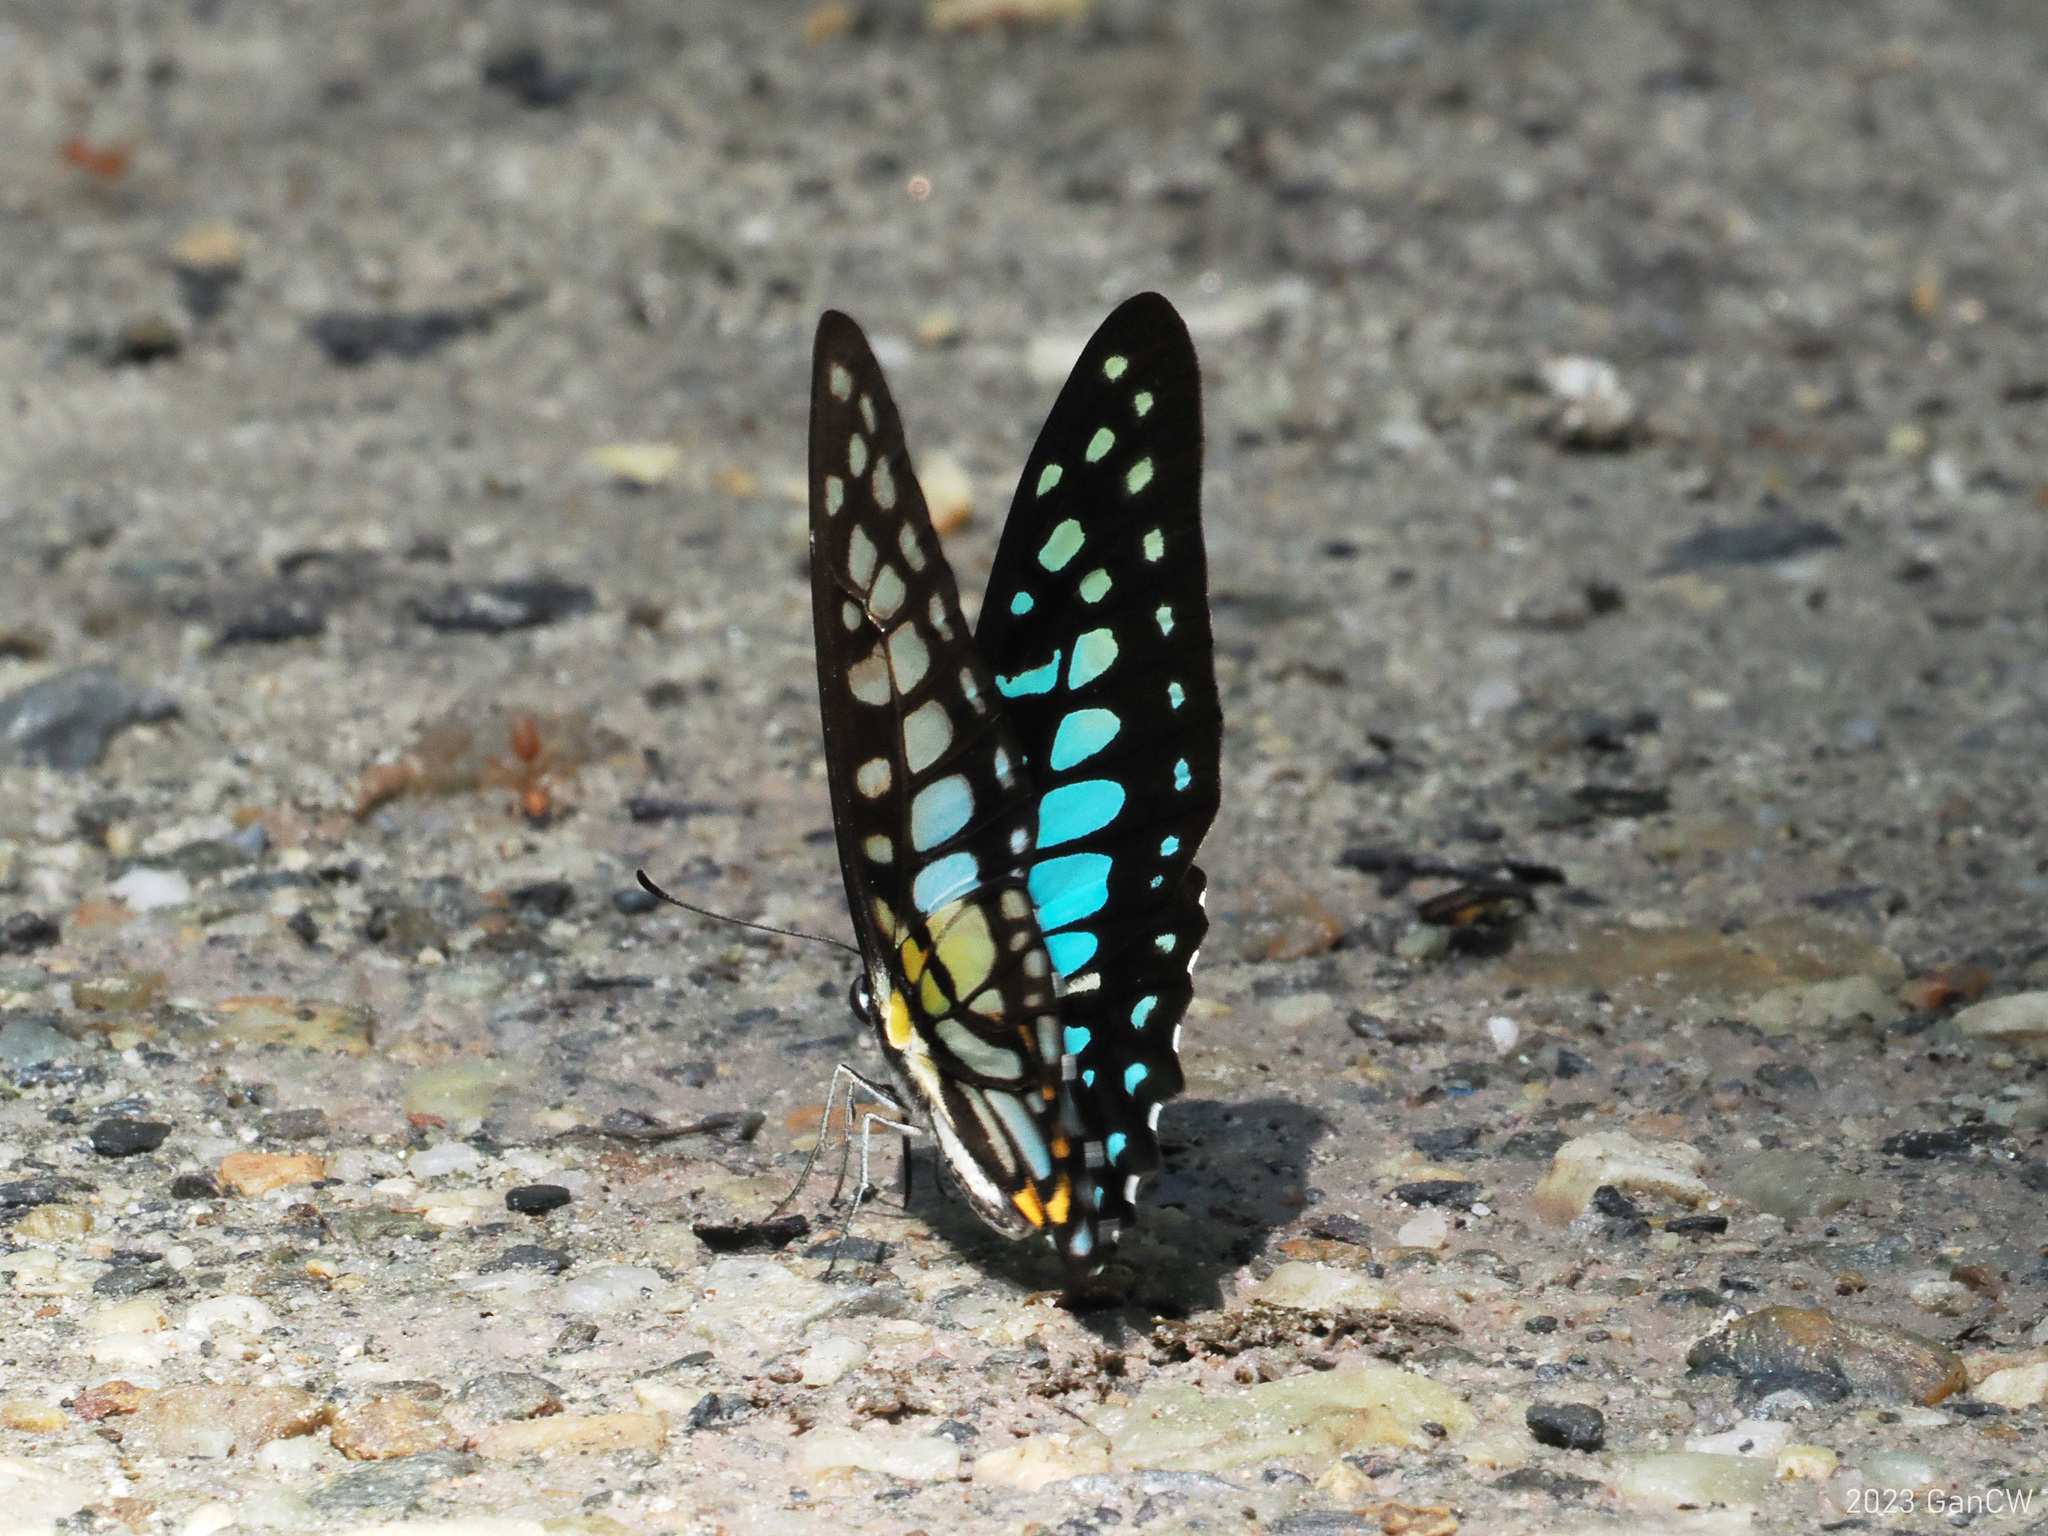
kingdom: Animalia
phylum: Arthropoda
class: Insecta
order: Lepidoptera
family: Papilionidae
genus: Graphium
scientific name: Graphium chironides
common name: Veined jay
